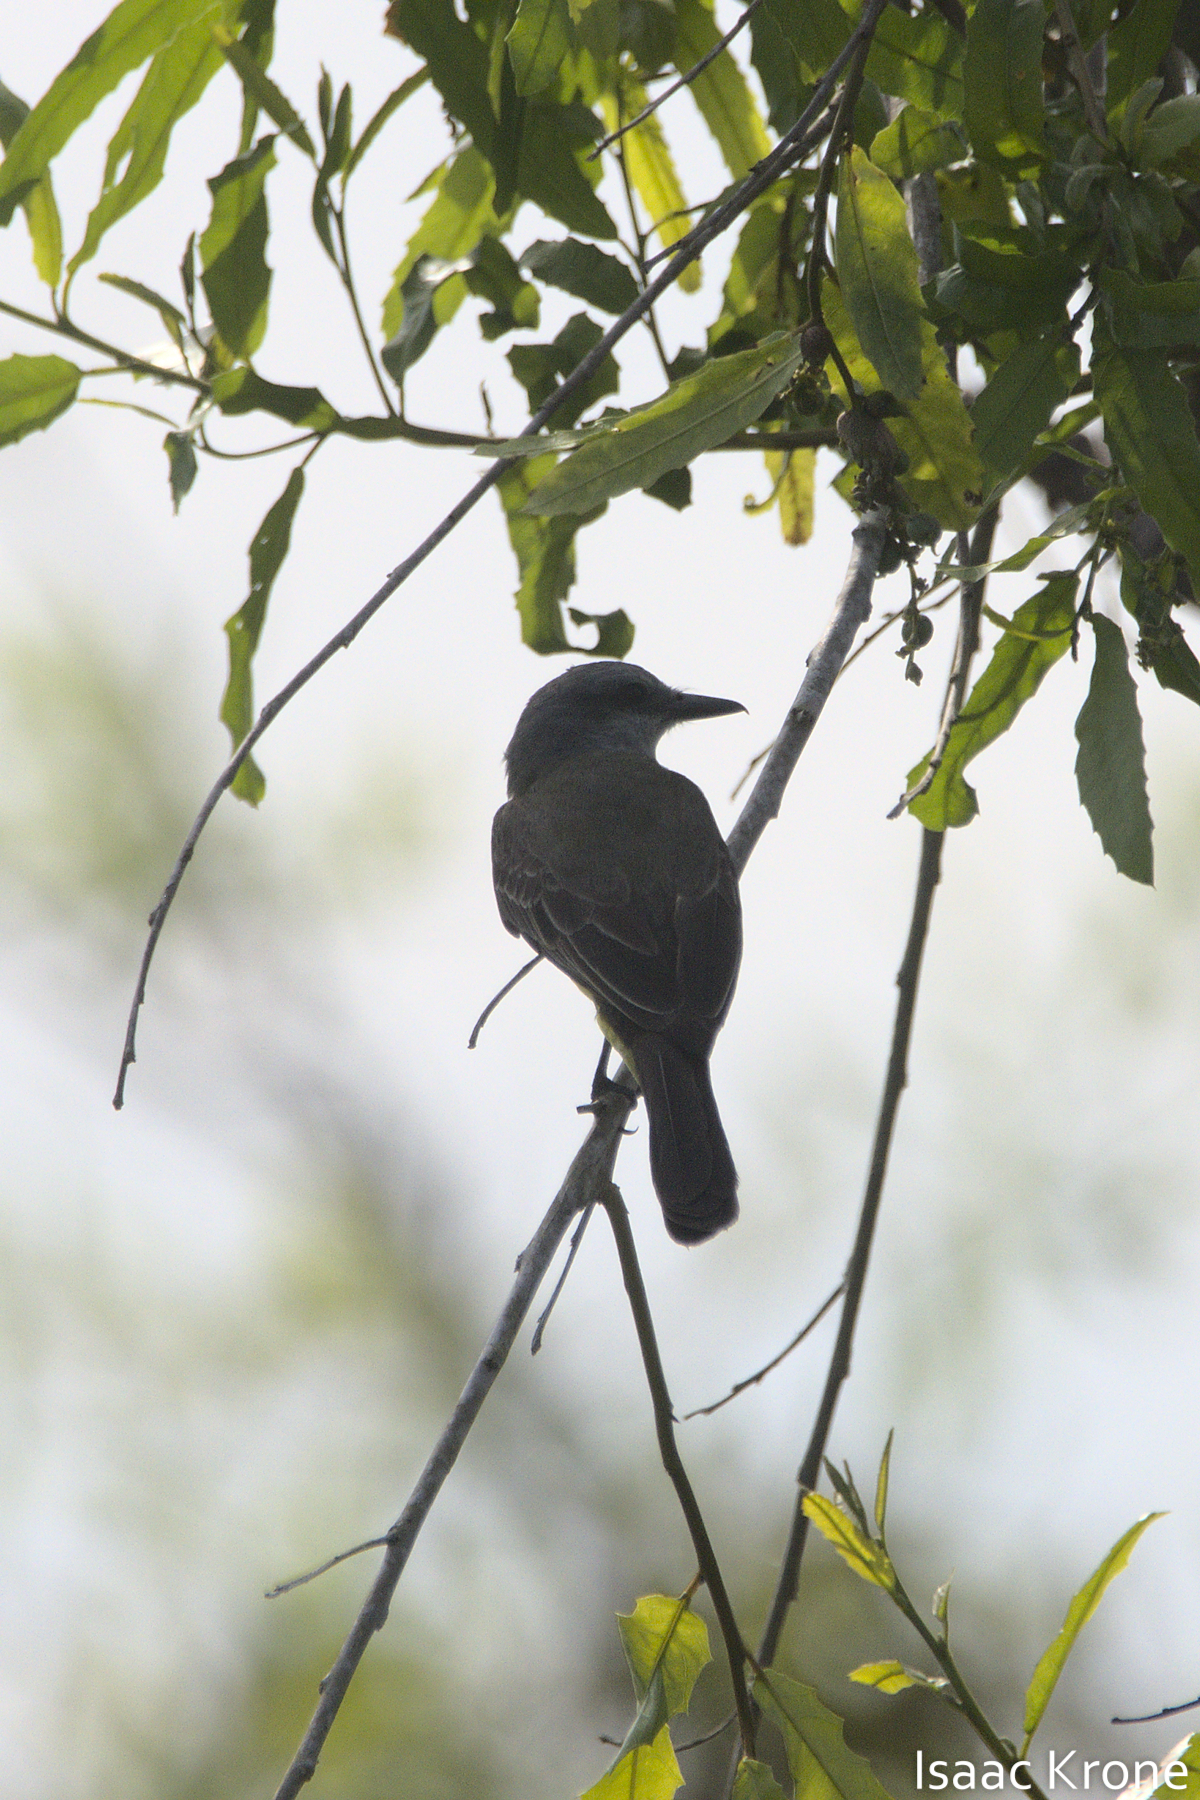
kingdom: Animalia
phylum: Chordata
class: Aves
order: Passeriformes
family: Tyrannidae
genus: Tyrannus
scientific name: Tyrannus melancholicus
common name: Tropical kingbird
